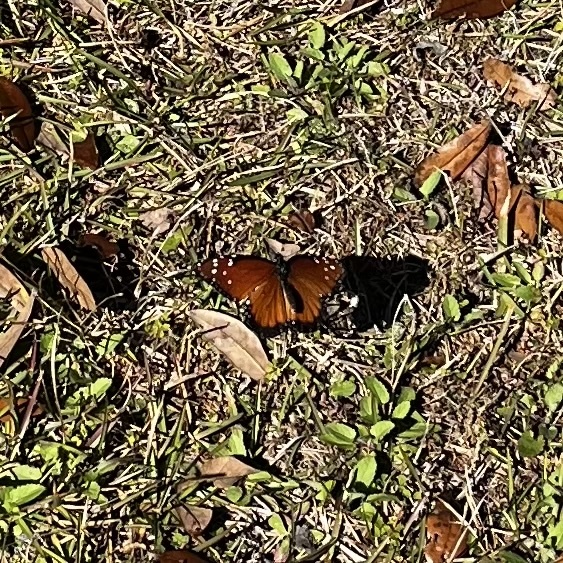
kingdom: Animalia
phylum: Arthropoda
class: Insecta
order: Lepidoptera
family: Nymphalidae
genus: Danaus
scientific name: Danaus gilippus
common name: Queen
